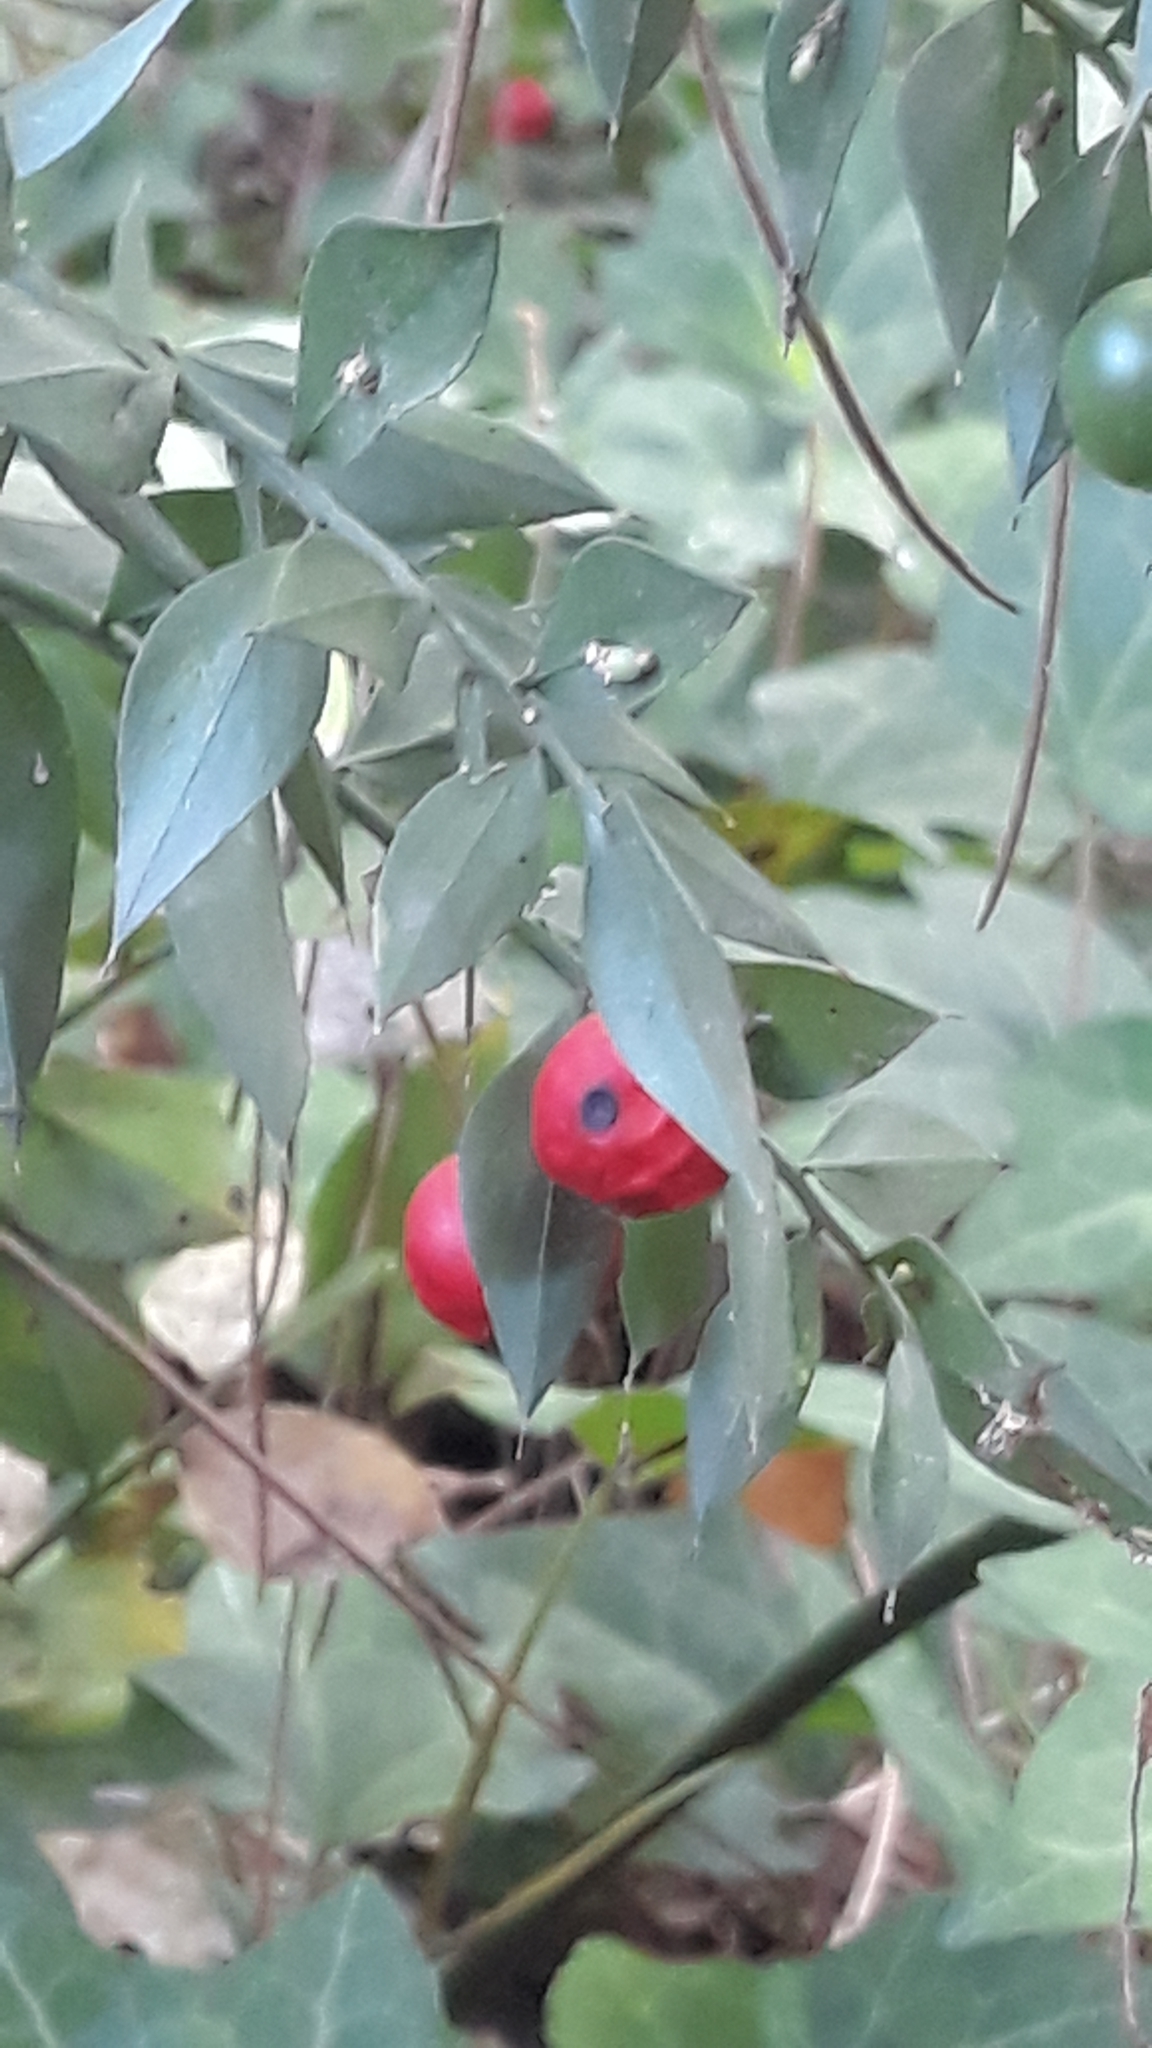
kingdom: Plantae
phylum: Tracheophyta
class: Liliopsida
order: Asparagales
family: Asparagaceae
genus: Ruscus
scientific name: Ruscus aculeatus
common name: Butcher's-broom
